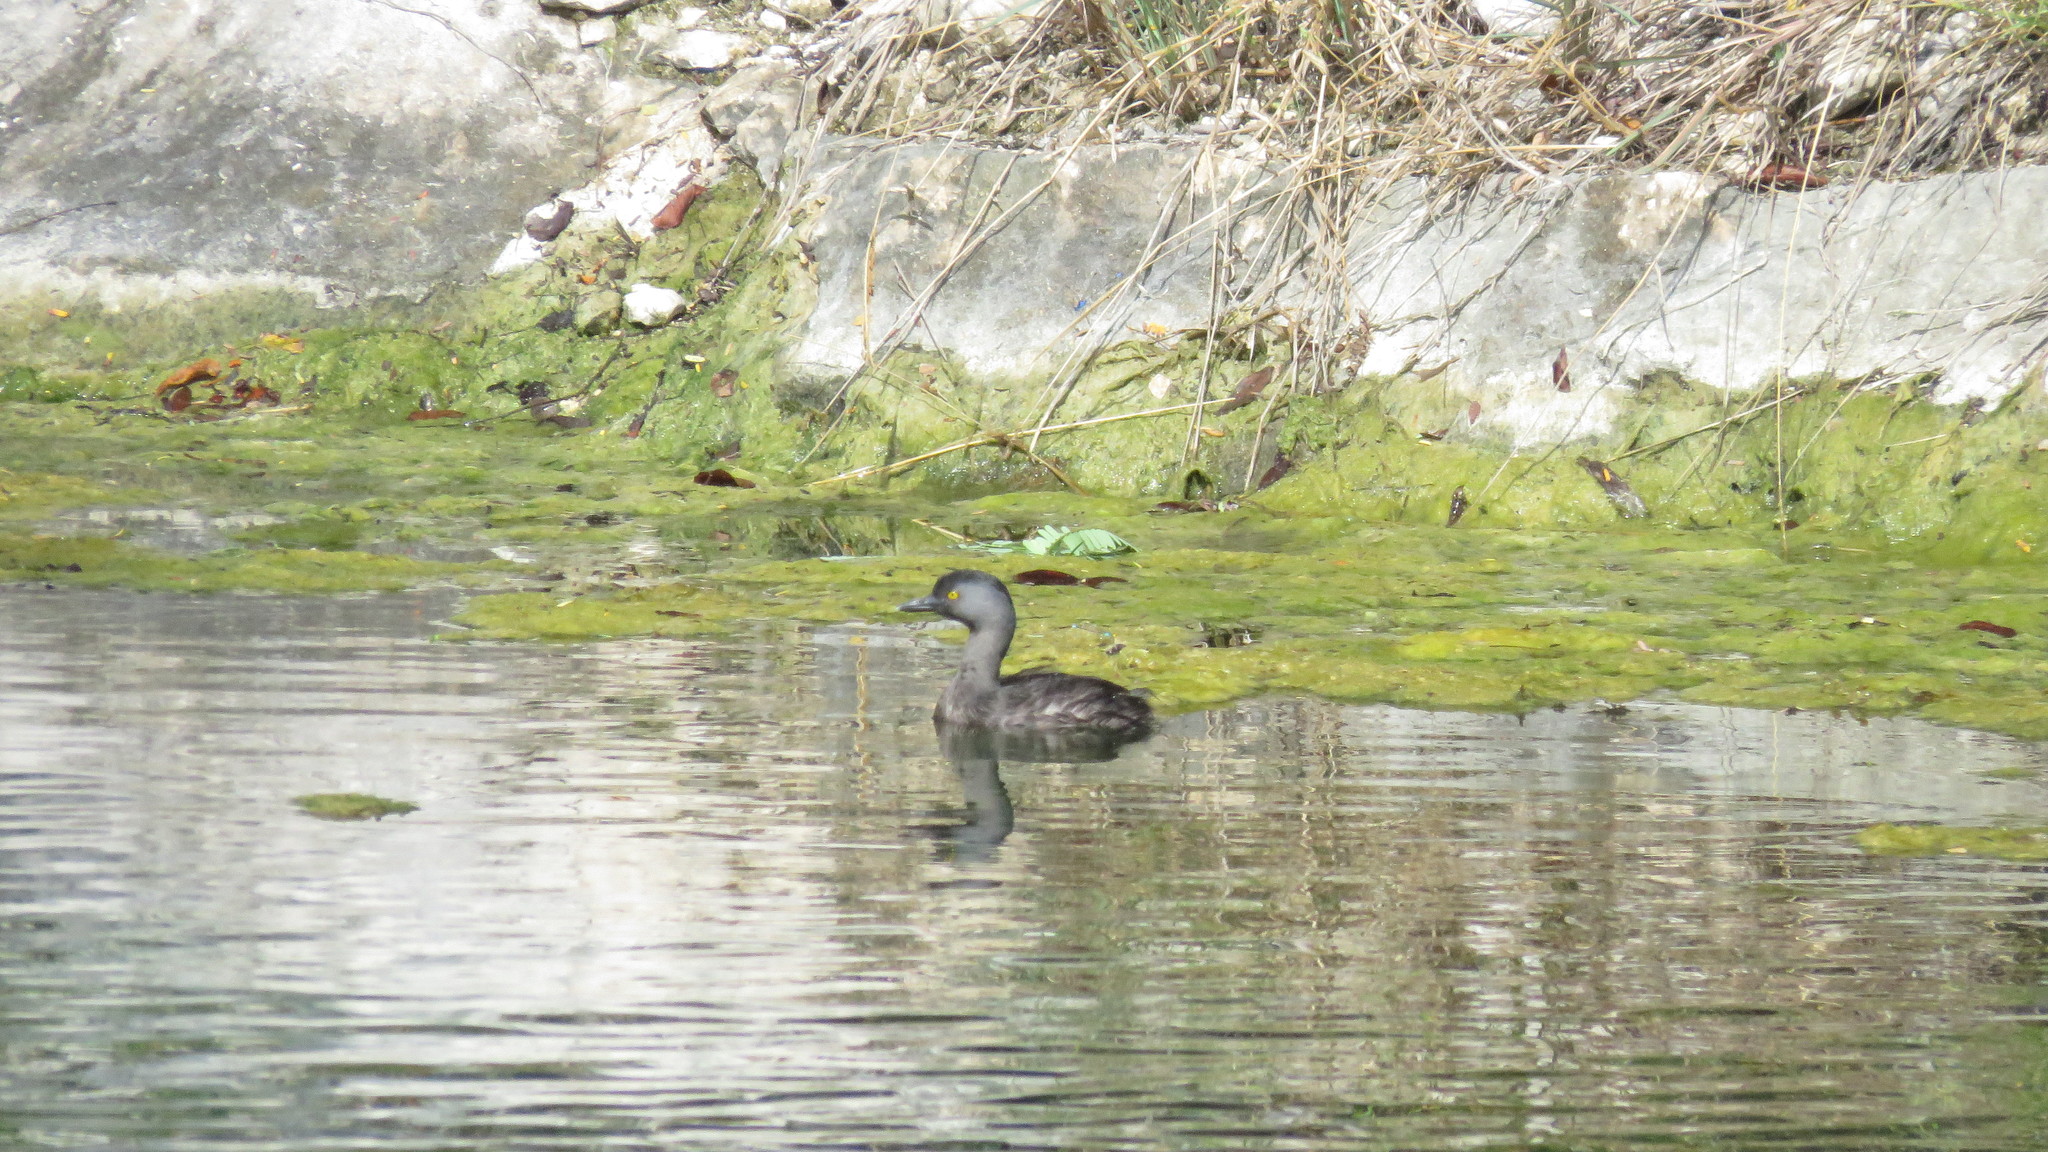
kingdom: Animalia
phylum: Chordata
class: Aves
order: Podicipediformes
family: Podicipedidae
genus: Tachybaptus
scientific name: Tachybaptus dominicus
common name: Least grebe
